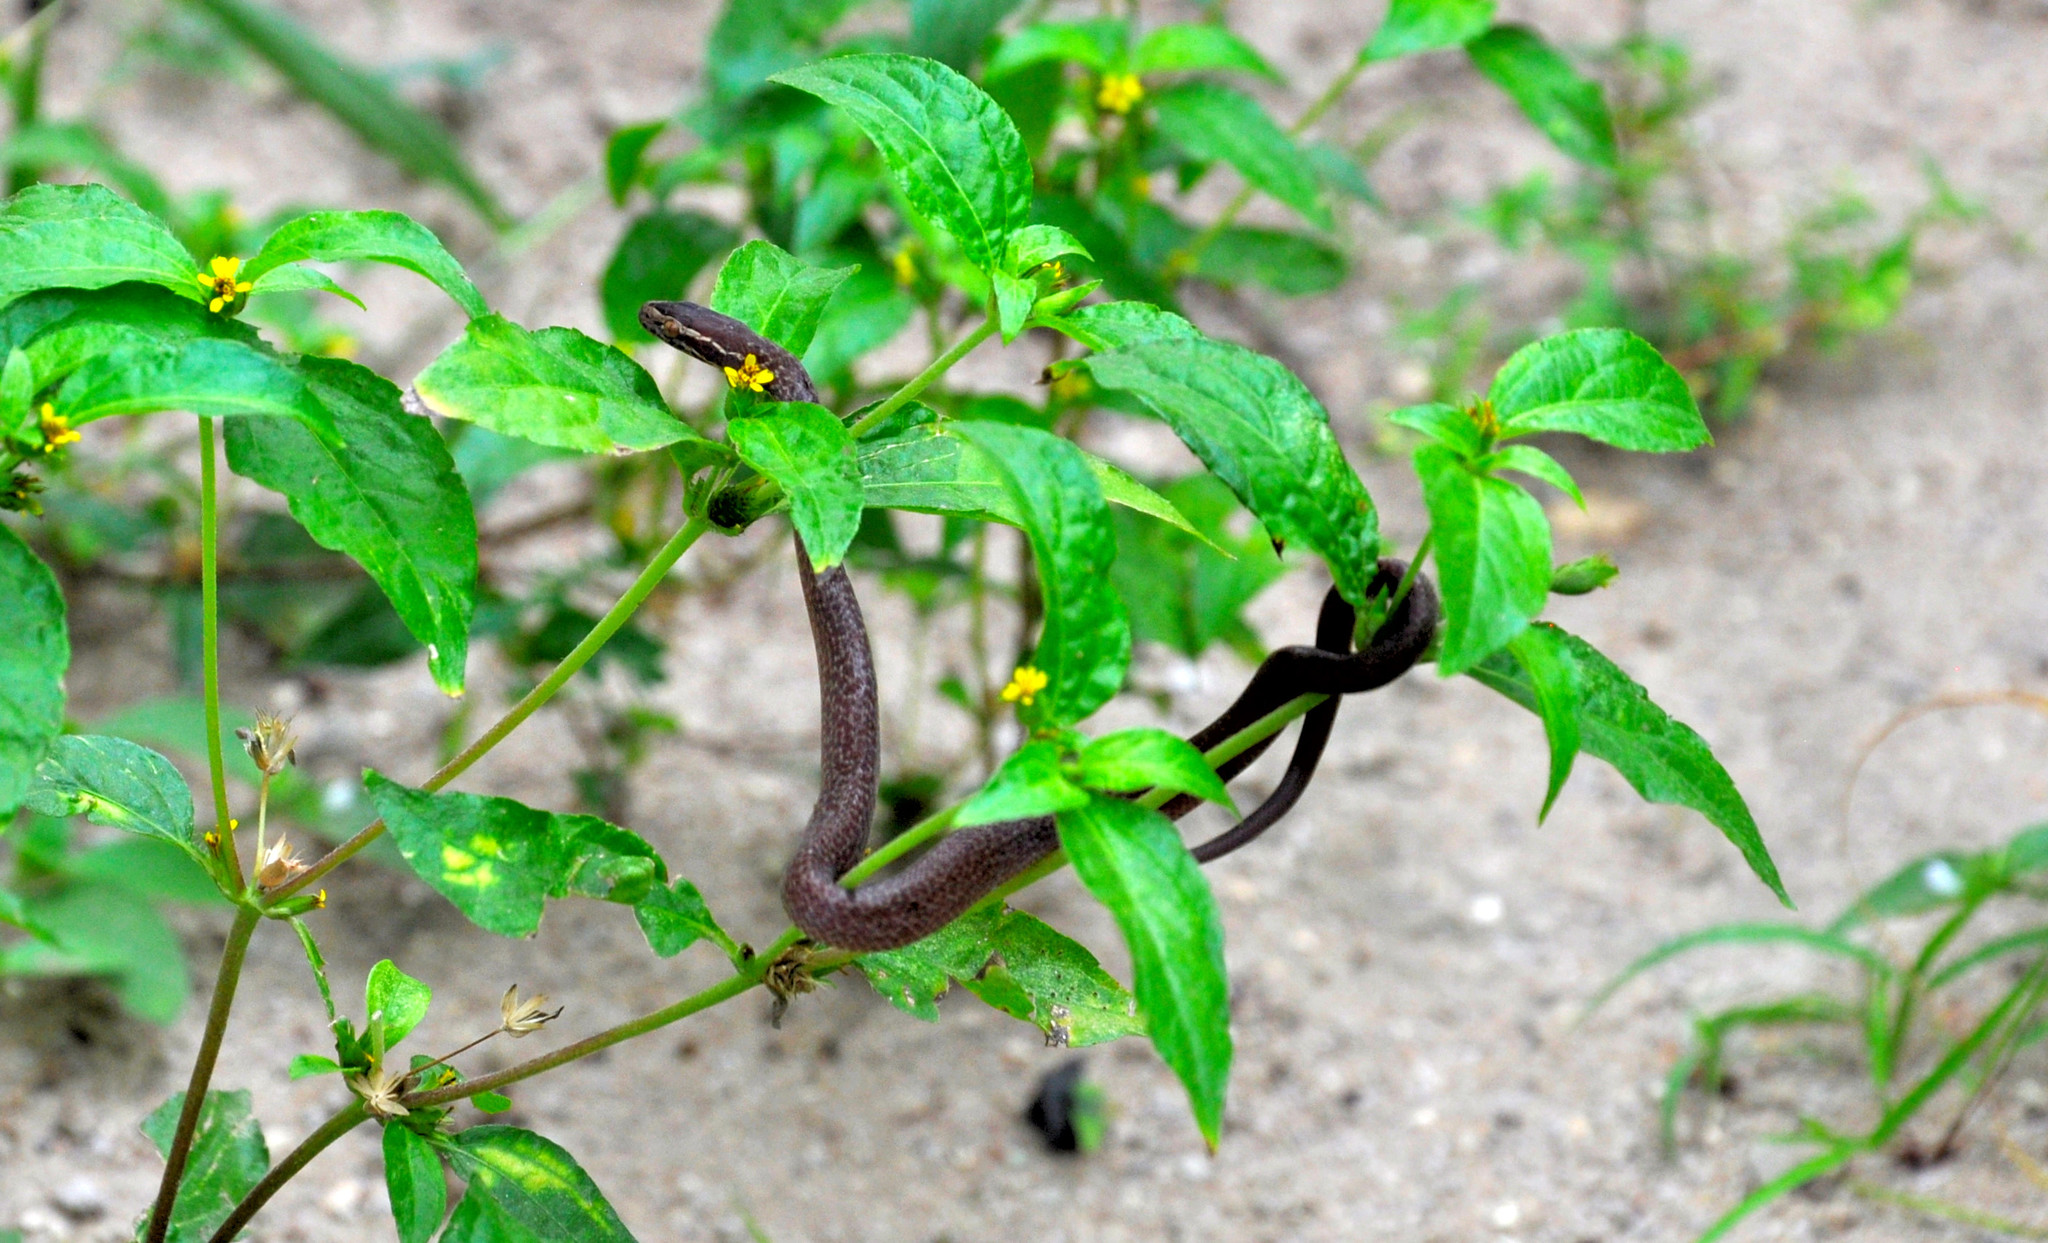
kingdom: Animalia
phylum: Chordata
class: Squamata
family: Lamprophiidae
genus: Boaedon
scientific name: Boaedon fuliginosus
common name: African house snake
